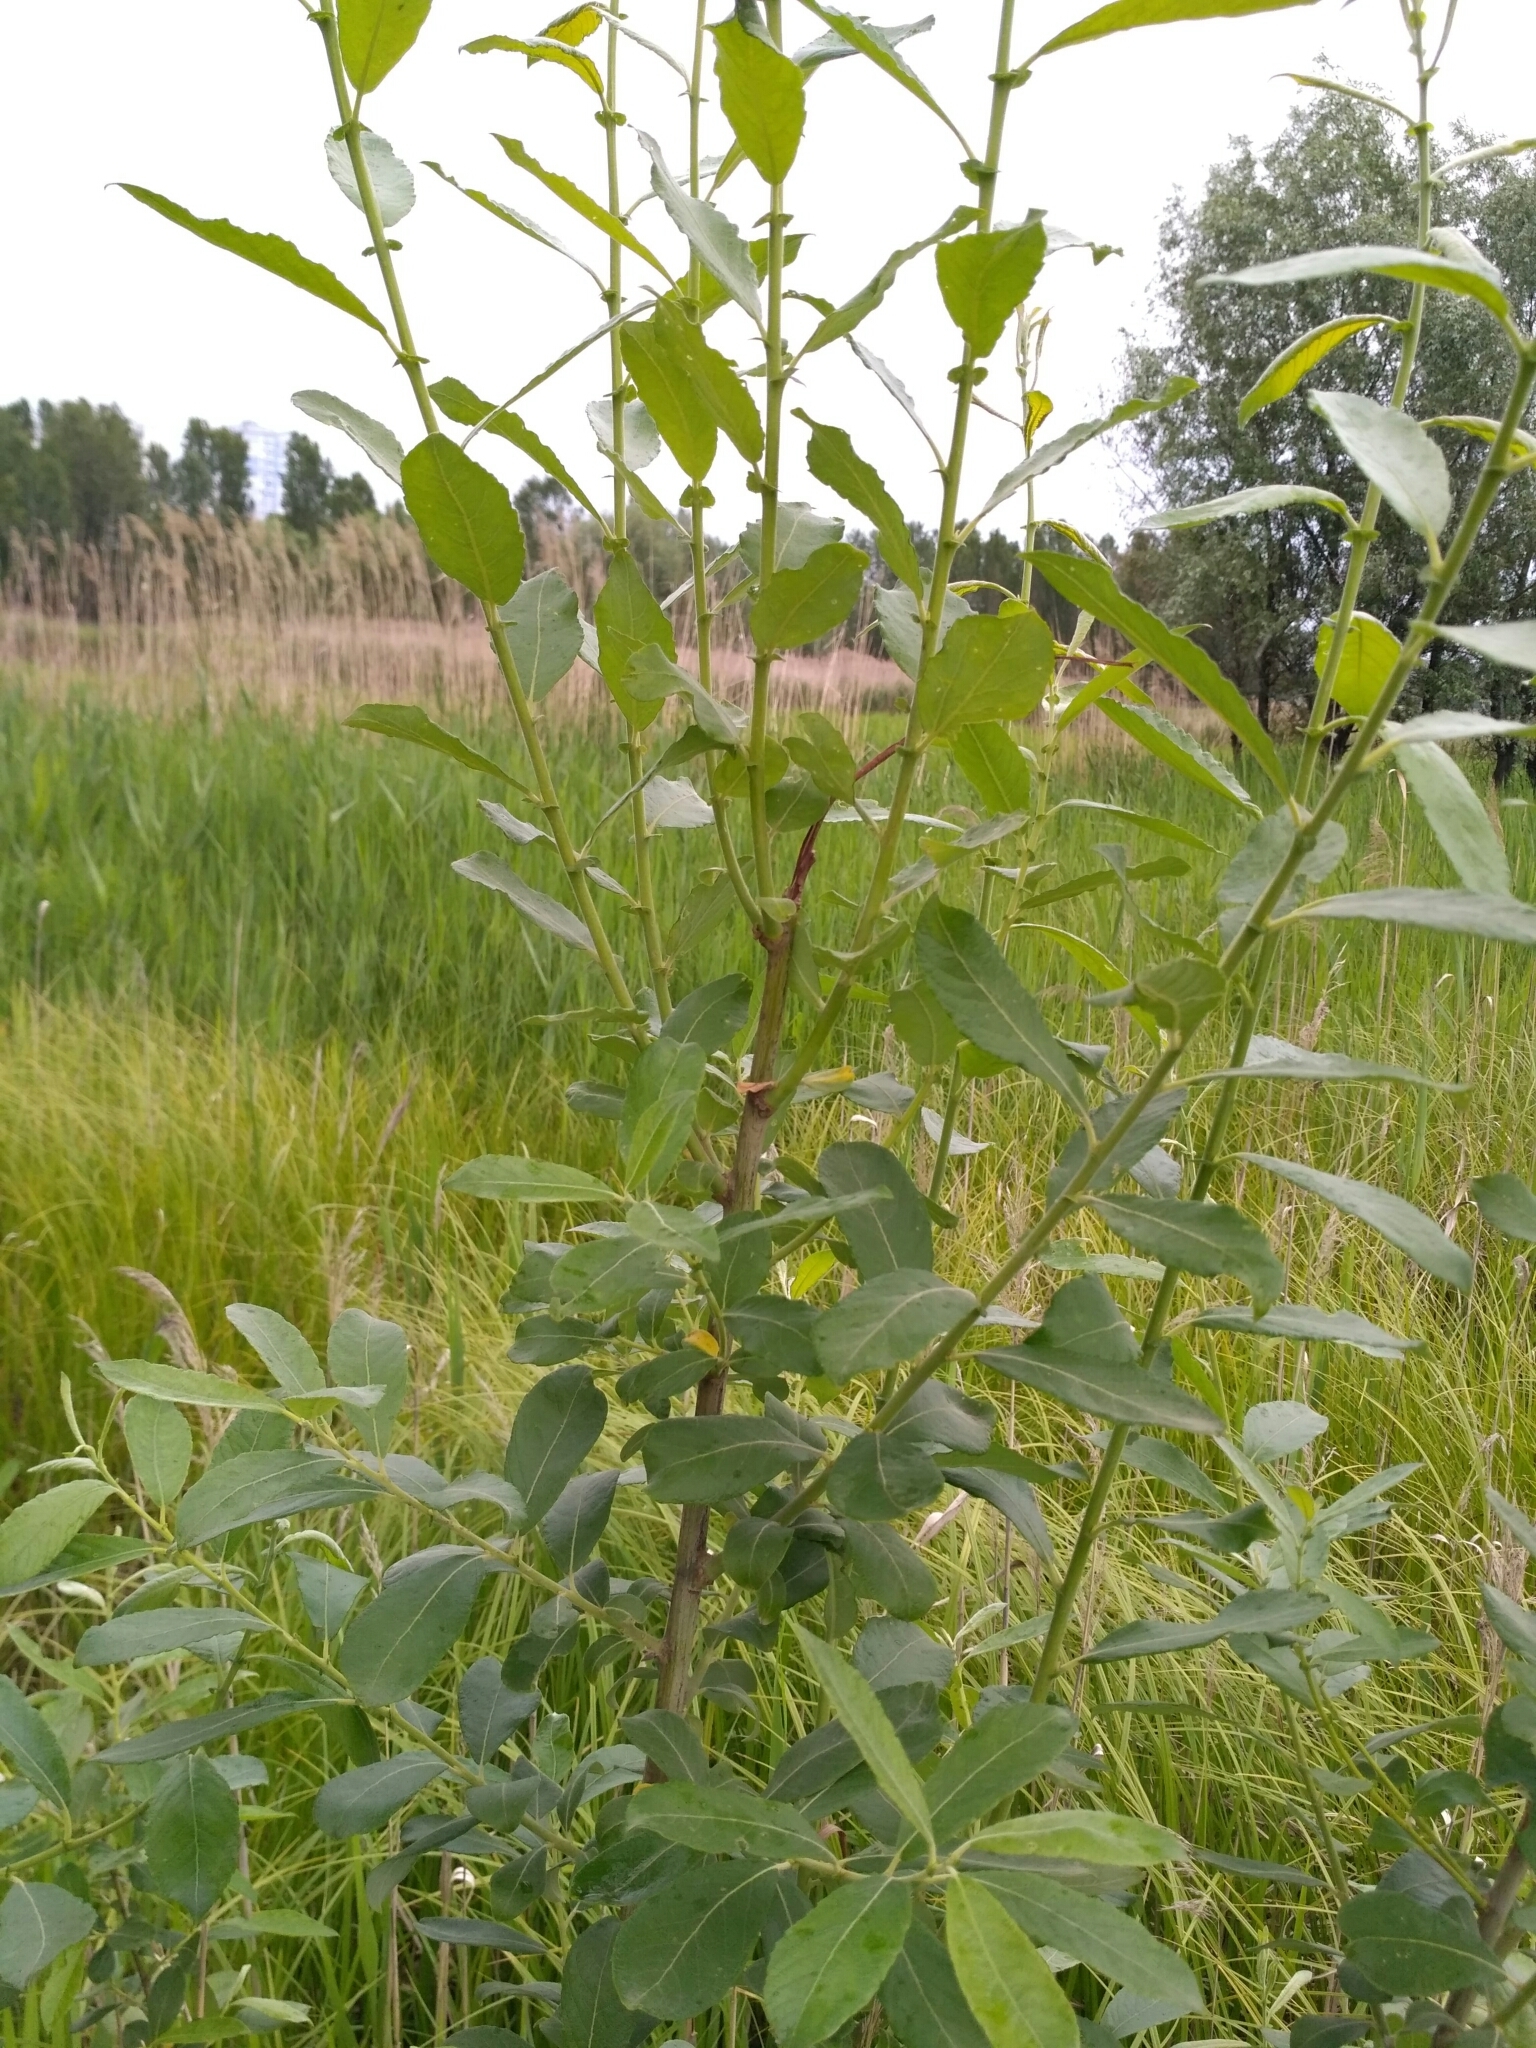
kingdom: Plantae
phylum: Tracheophyta
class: Magnoliopsida
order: Malpighiales
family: Salicaceae
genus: Salix
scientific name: Salix cinerea
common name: Common sallow
